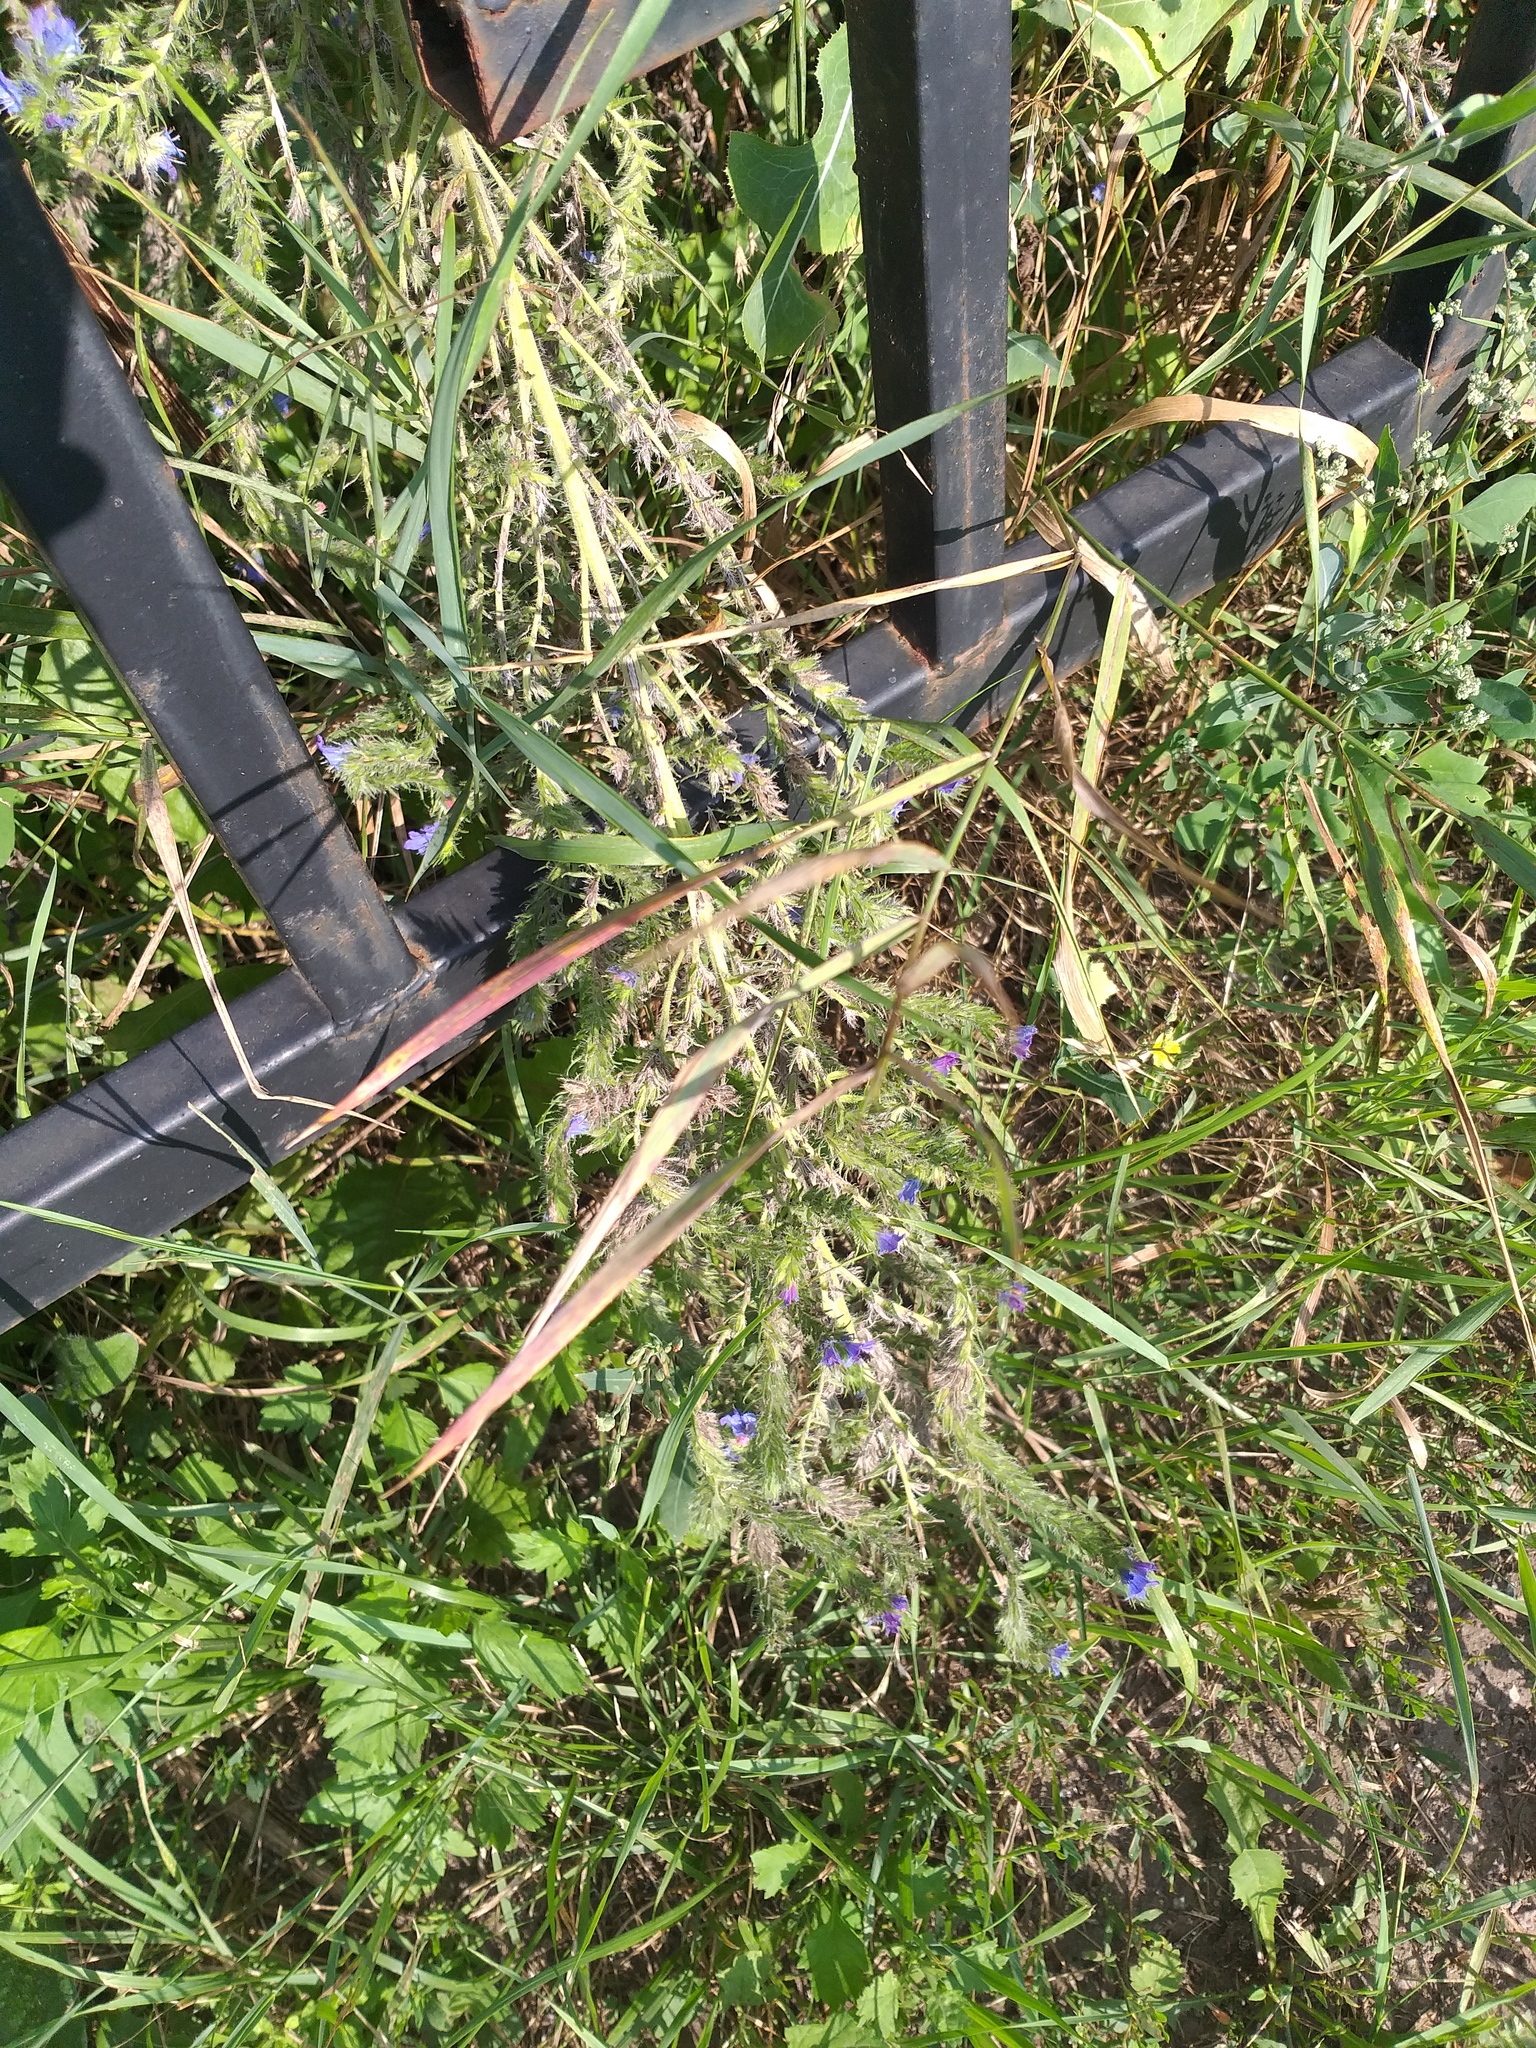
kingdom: Plantae
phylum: Tracheophyta
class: Magnoliopsida
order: Boraginales
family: Boraginaceae
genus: Echium
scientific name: Echium vulgare
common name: Common viper's bugloss
